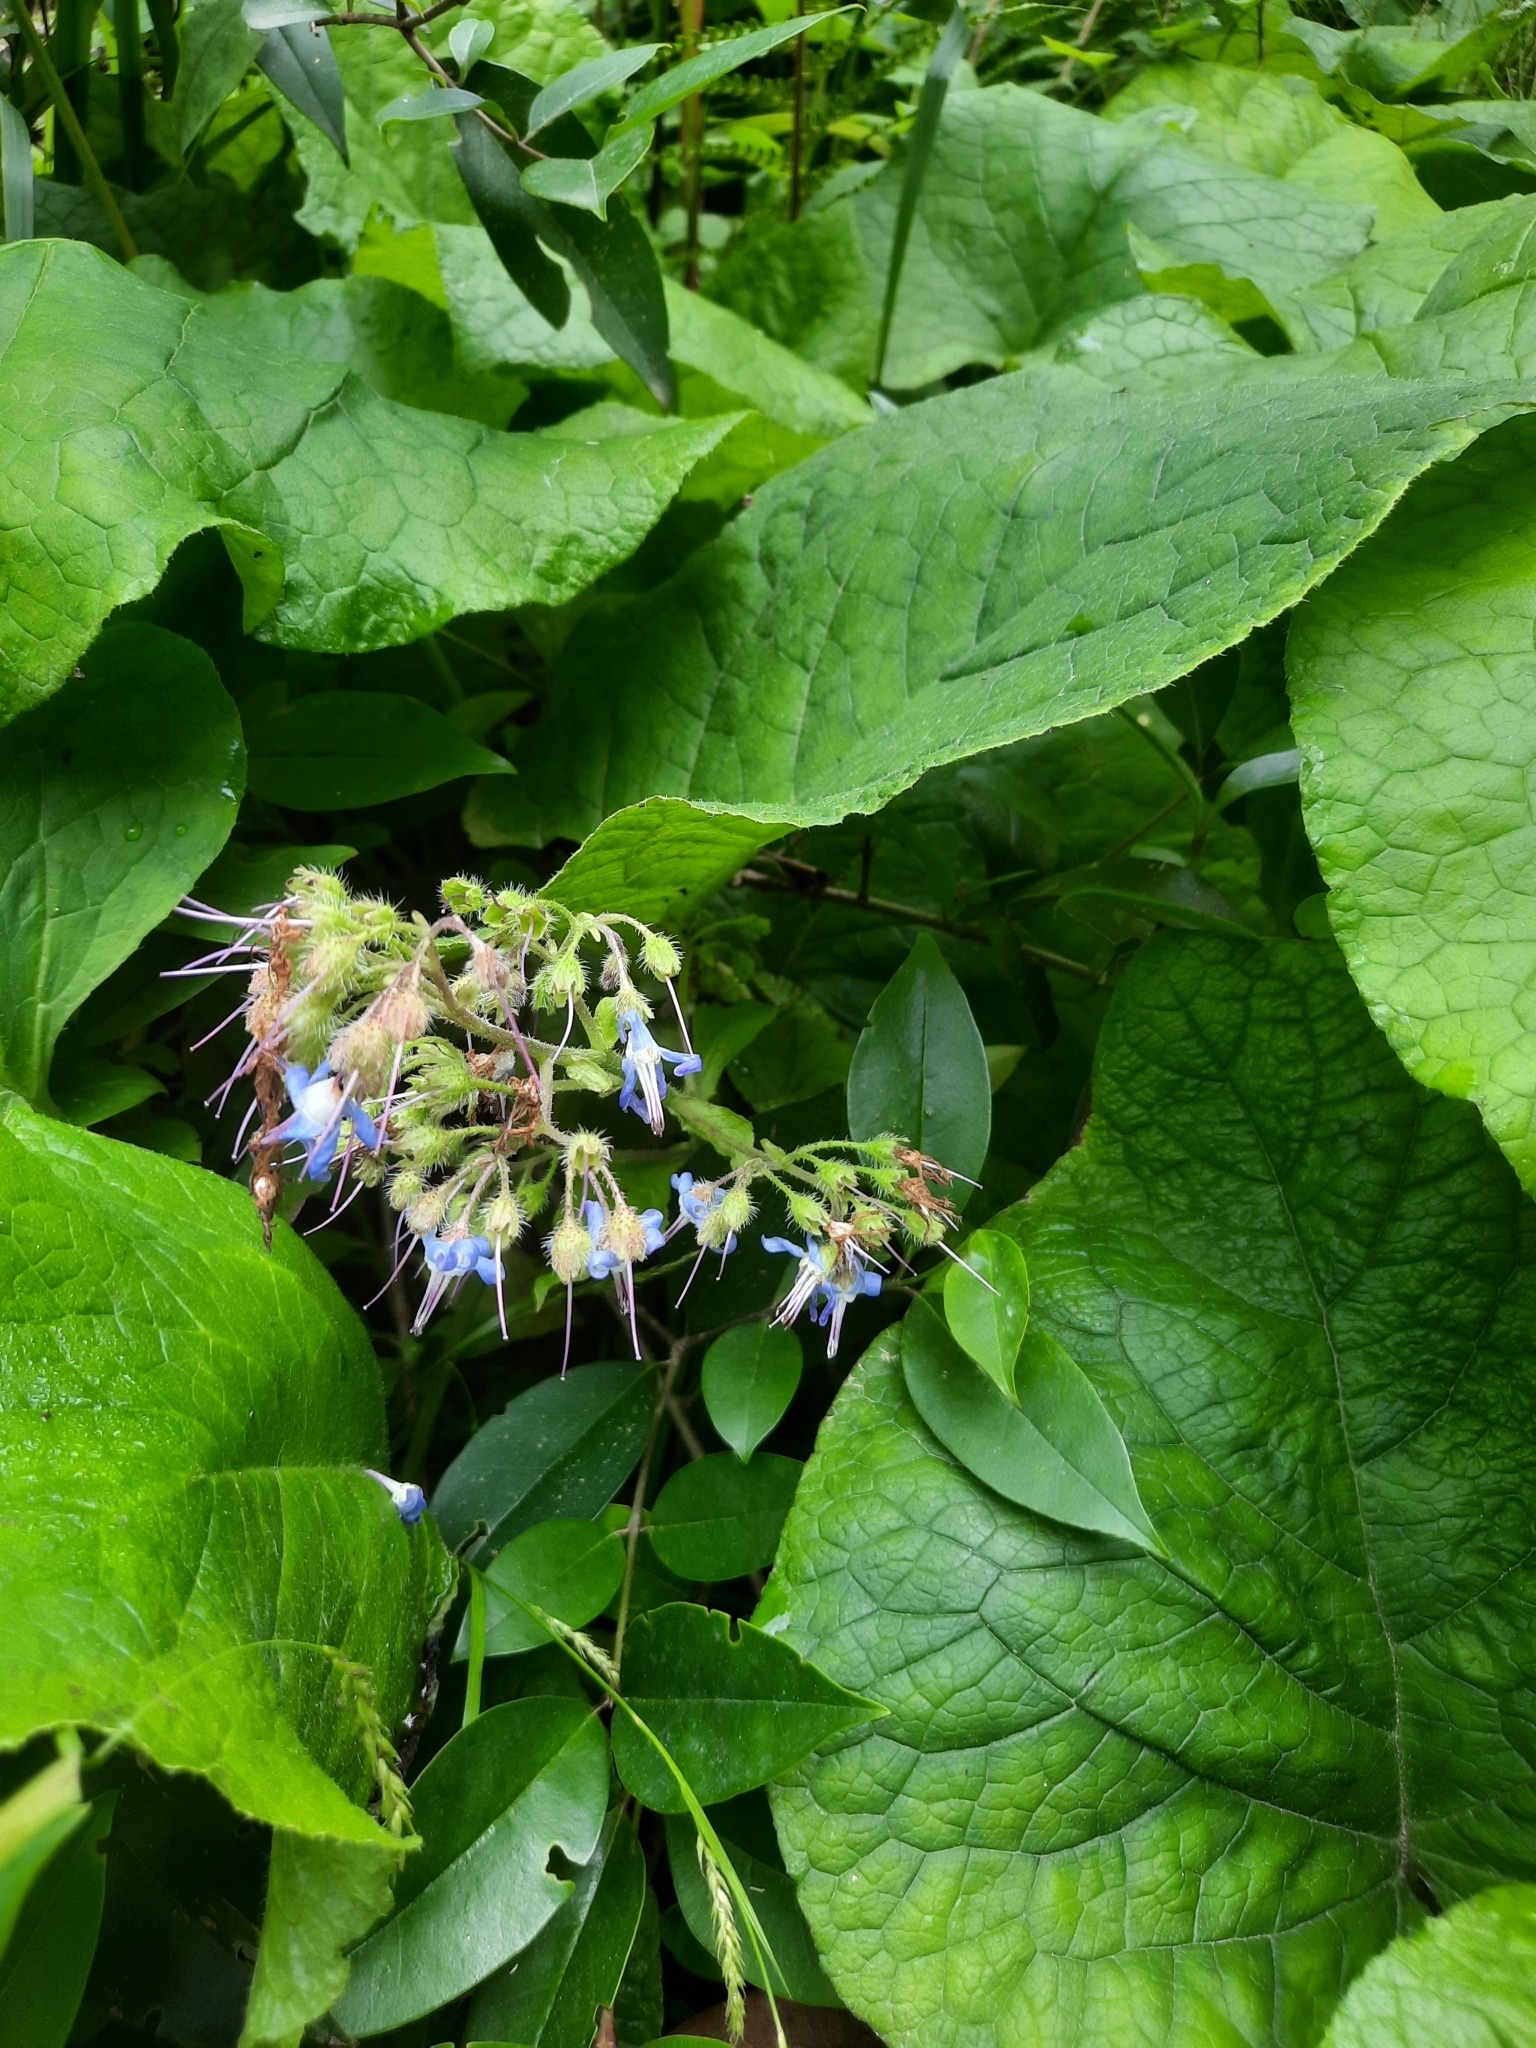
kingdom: Plantae
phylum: Tracheophyta
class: Magnoliopsida
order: Boraginales
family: Boraginaceae
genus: Trachystemon
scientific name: Trachystemon orientale
